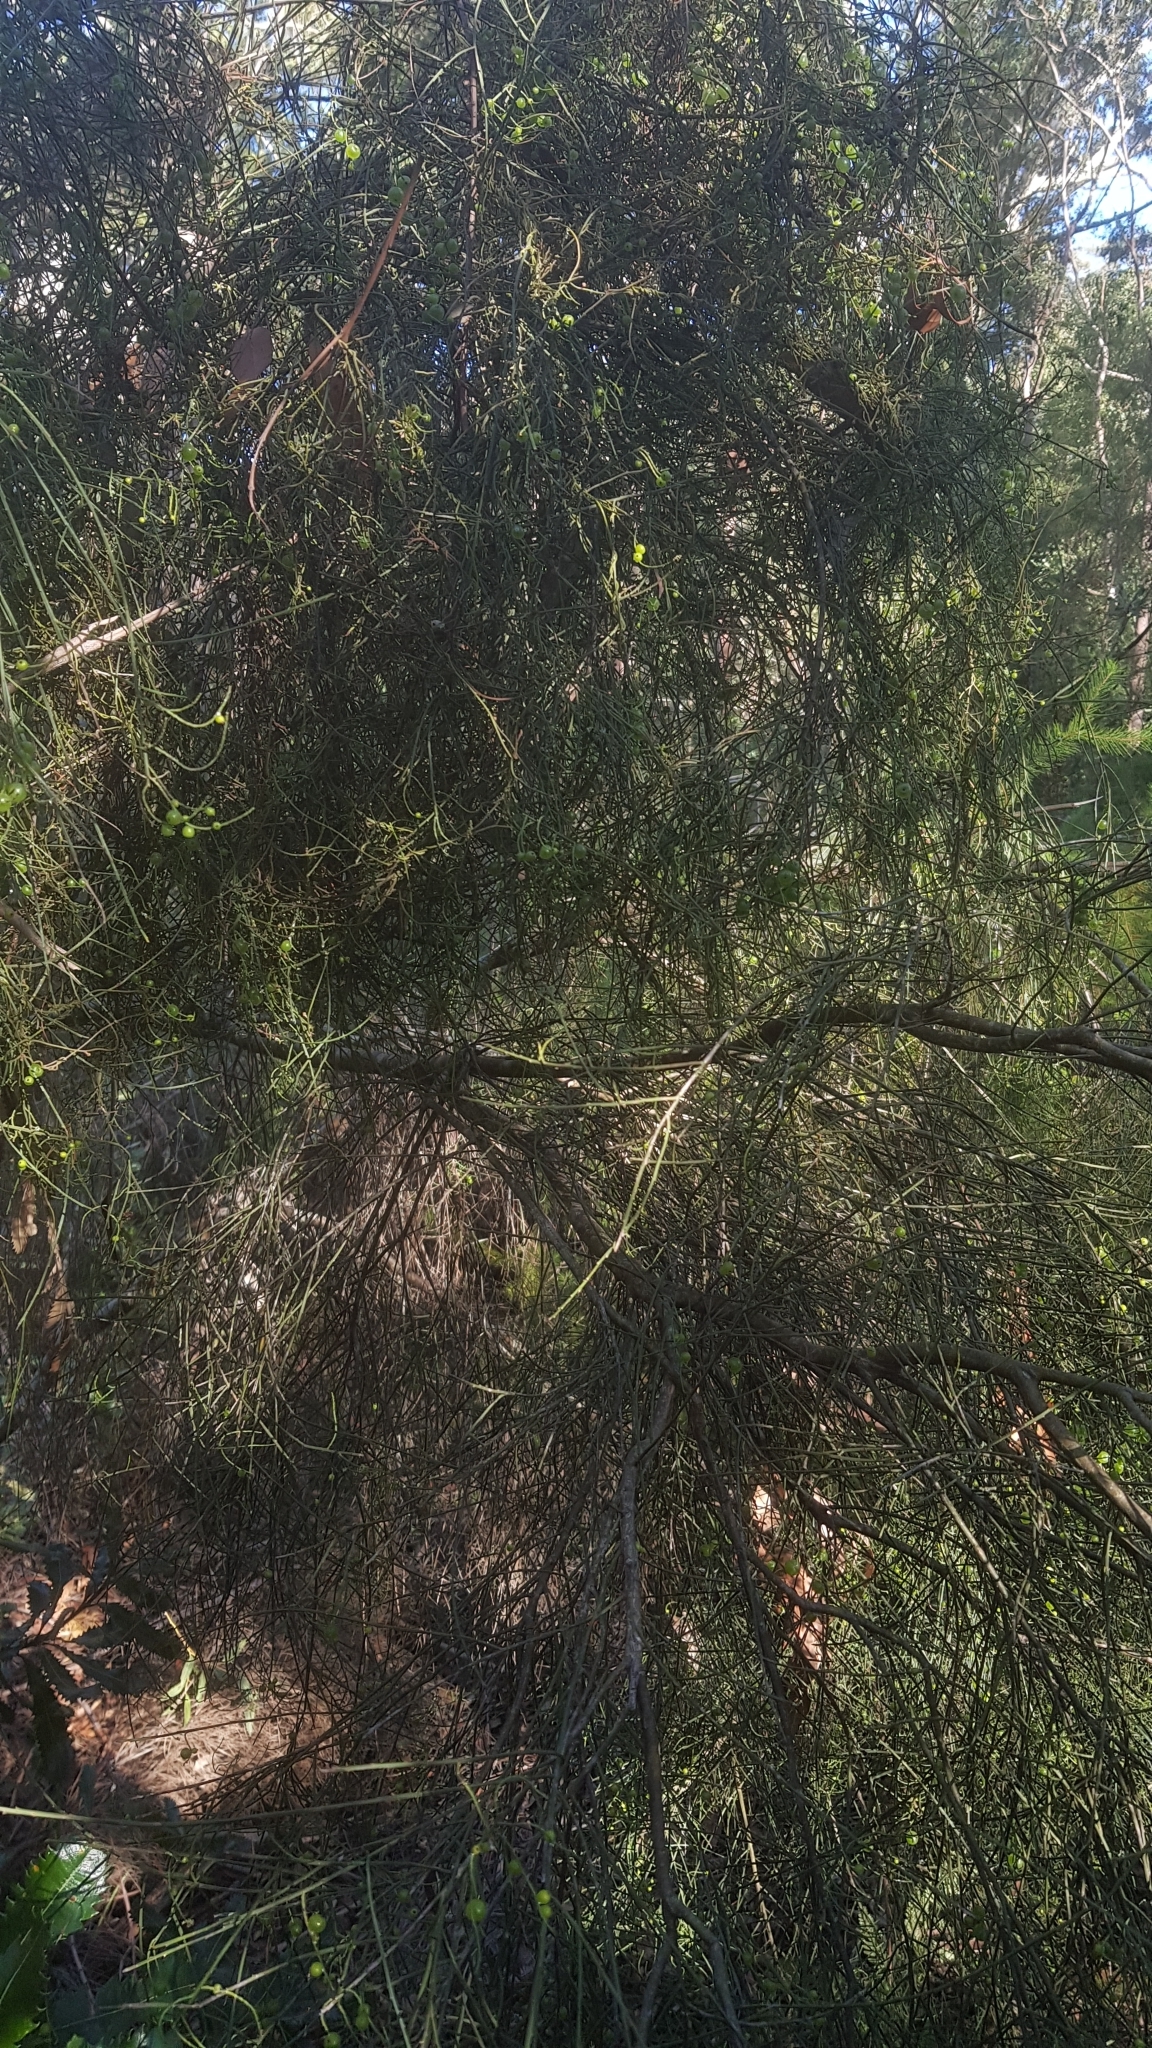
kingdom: Plantae
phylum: Tracheophyta
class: Magnoliopsida
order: Santalales
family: Amphorogynaceae
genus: Leptomeria
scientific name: Leptomeria acida
